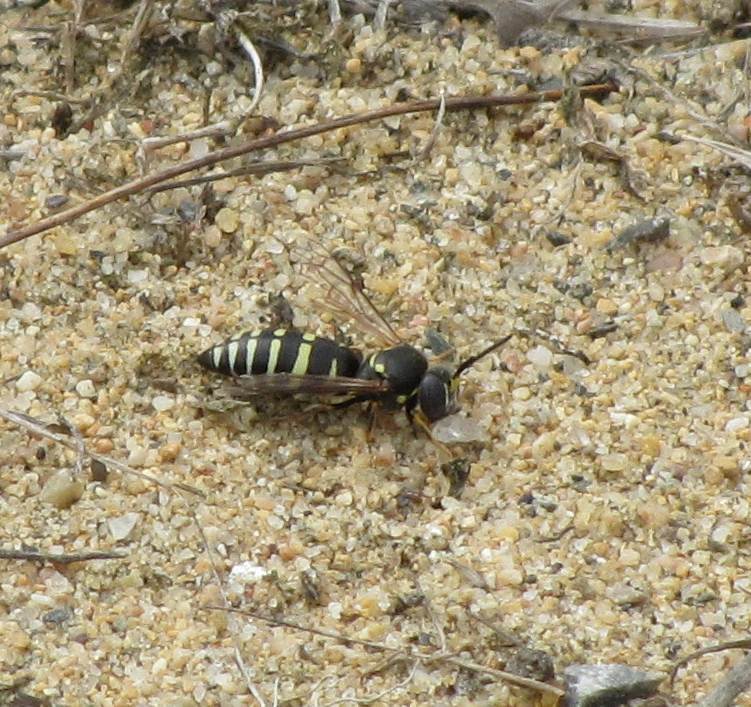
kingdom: Animalia
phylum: Arthropoda
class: Insecta
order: Hymenoptera
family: Crabronidae
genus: Bicyrtes
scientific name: Bicyrtes ventralis
